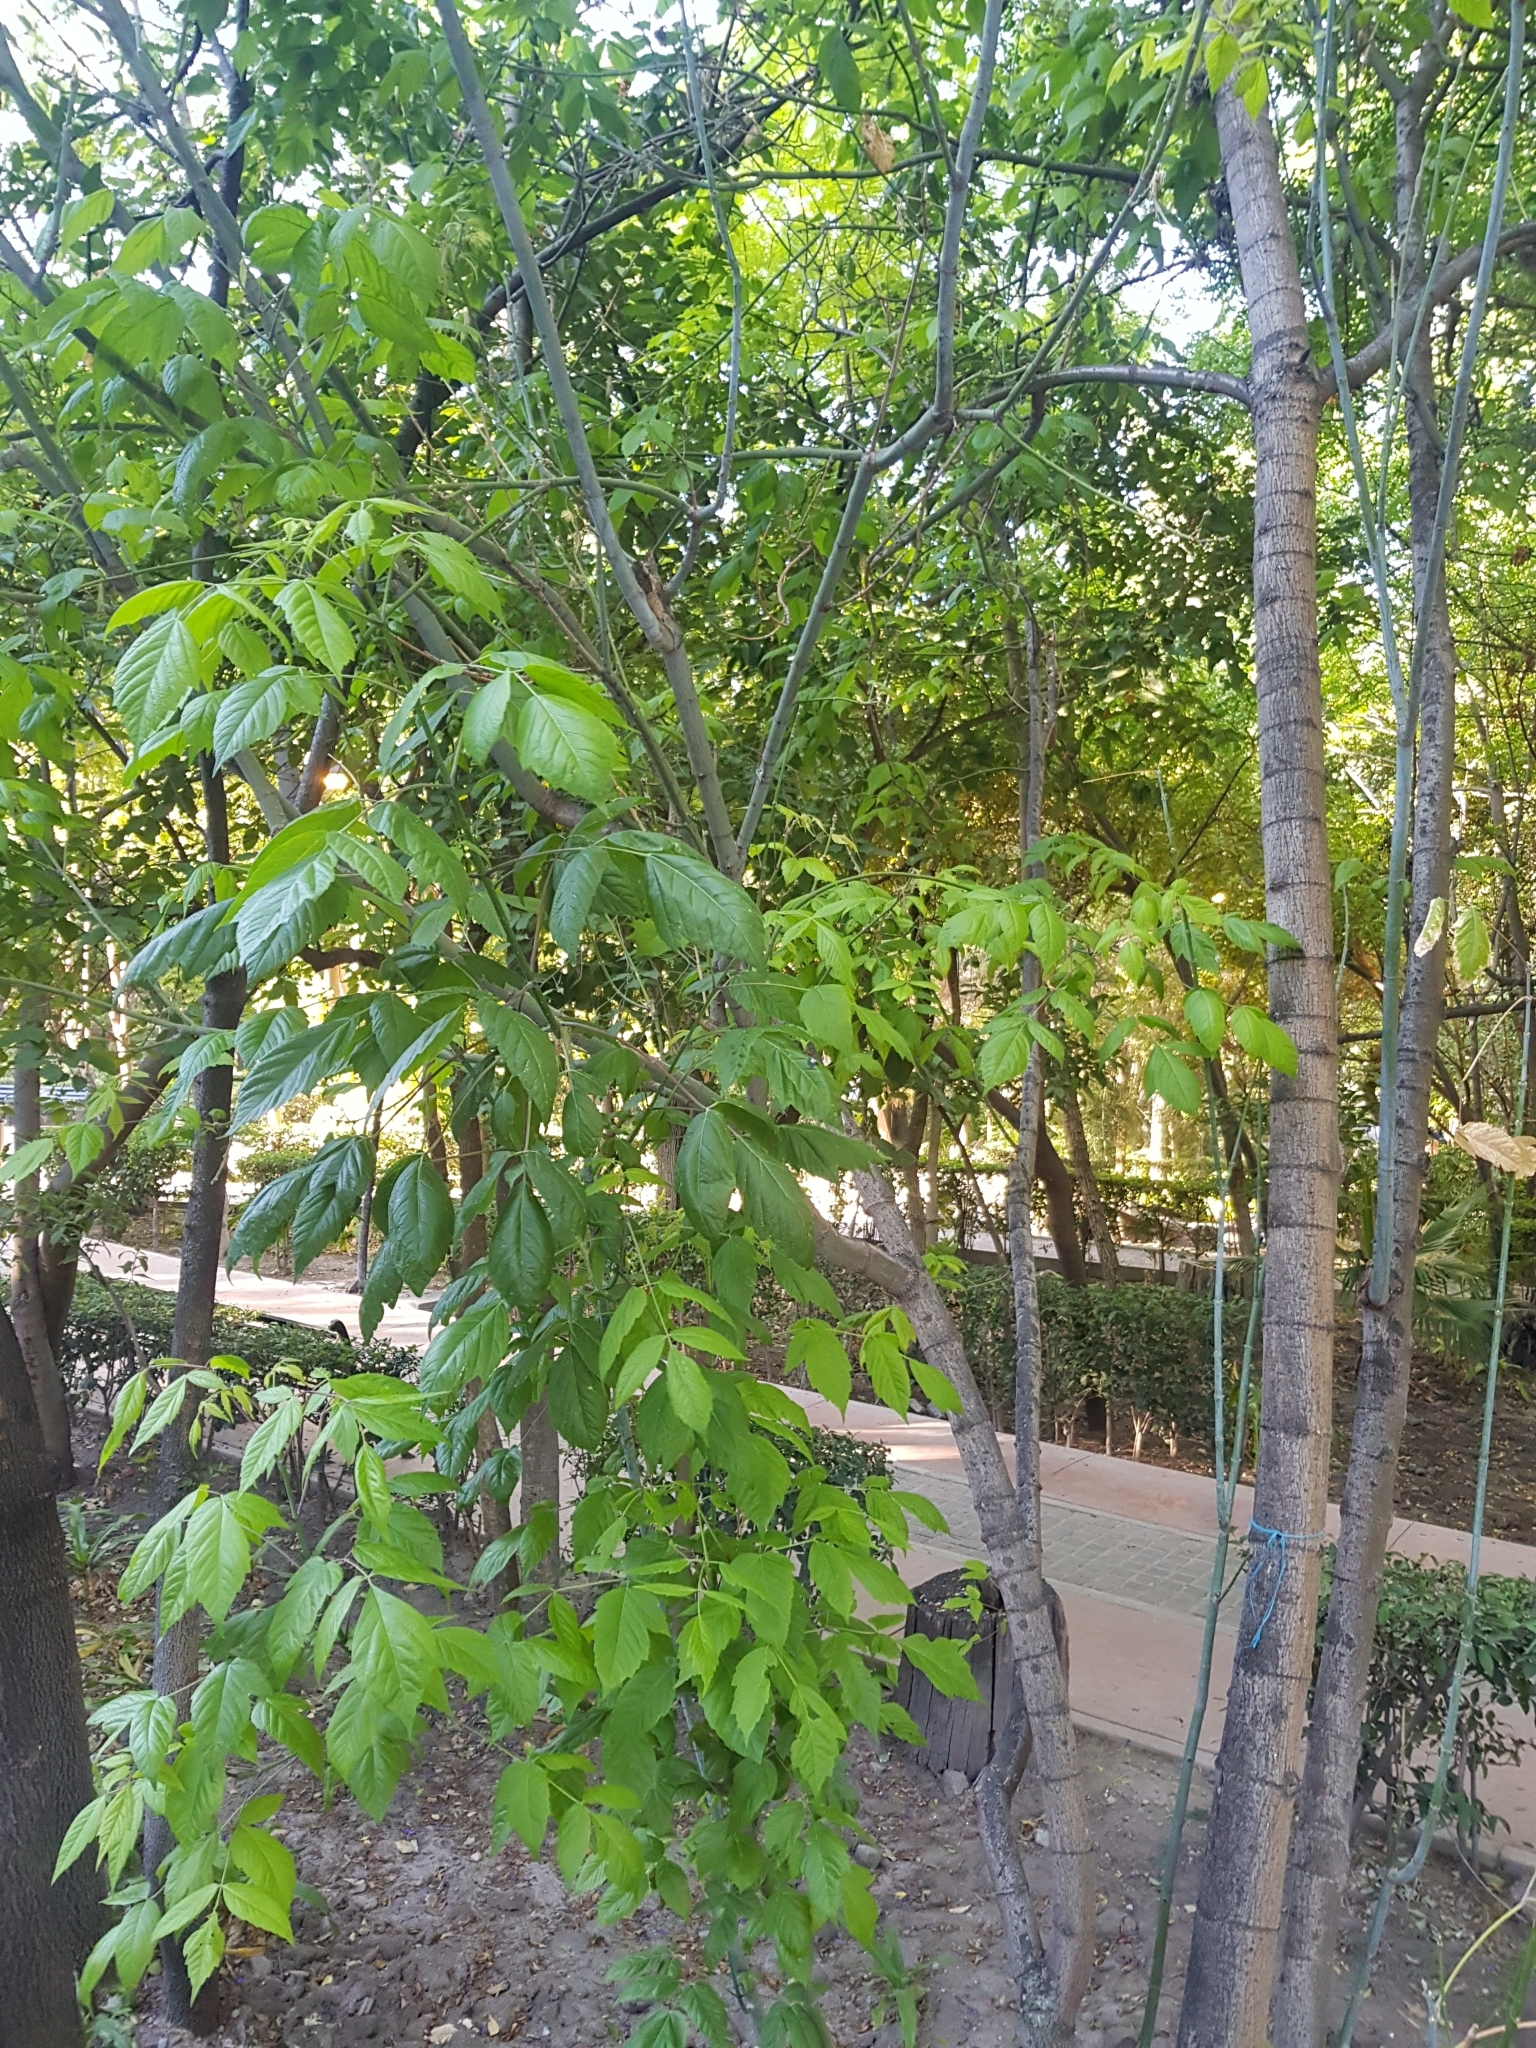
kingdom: Plantae
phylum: Tracheophyta
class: Magnoliopsida
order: Lamiales
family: Oleaceae
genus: Fraxinus
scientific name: Fraxinus uhdei
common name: Shamel ash
